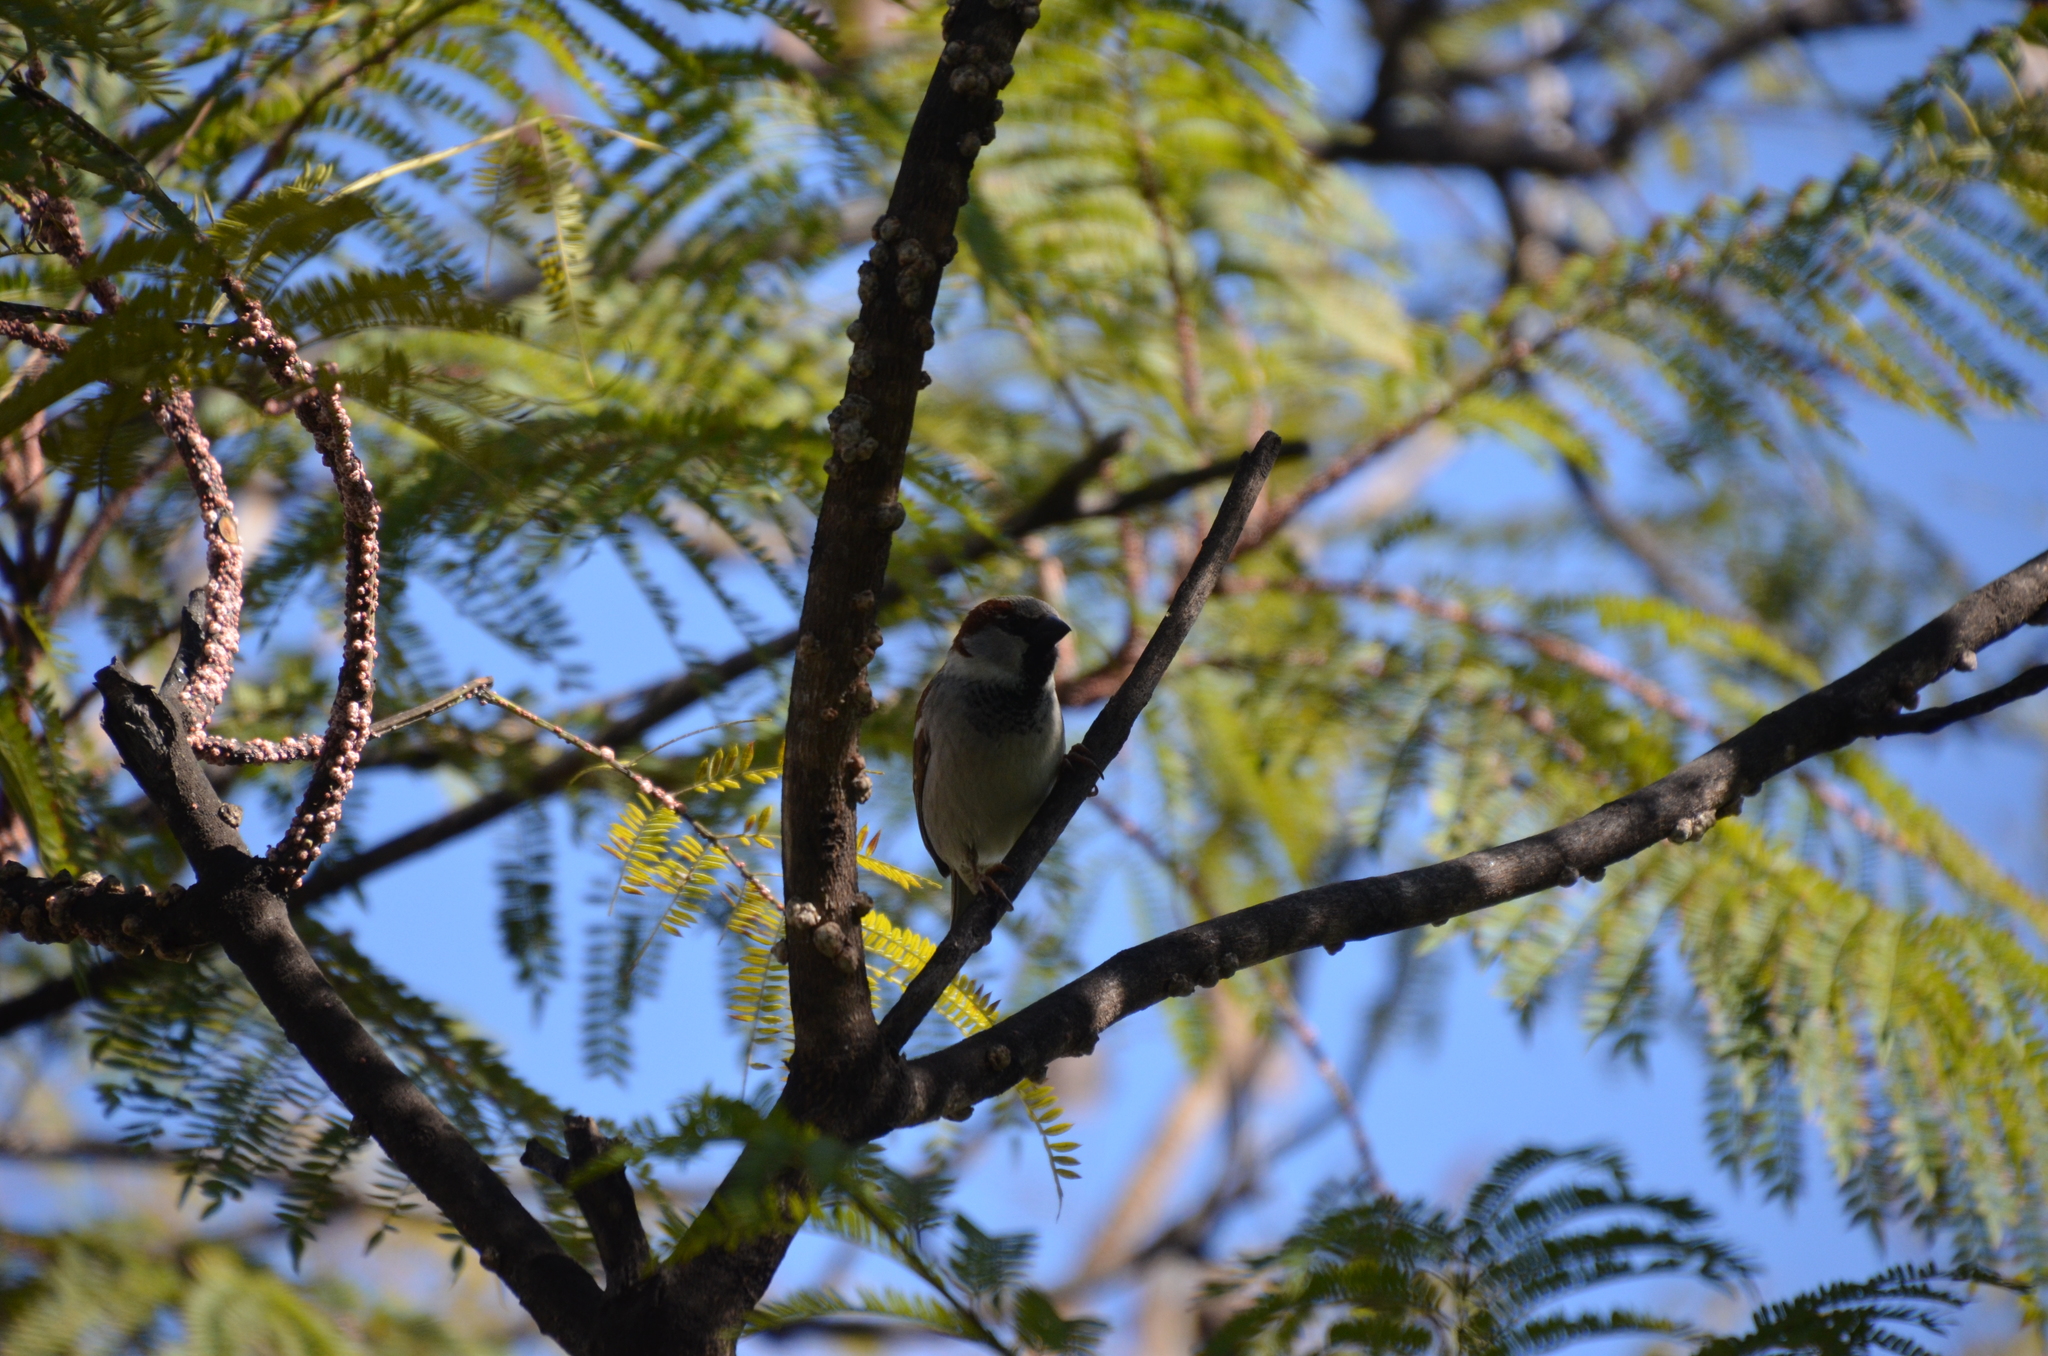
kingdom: Animalia
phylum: Chordata
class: Aves
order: Passeriformes
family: Passeridae
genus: Passer
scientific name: Passer domesticus
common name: House sparrow
